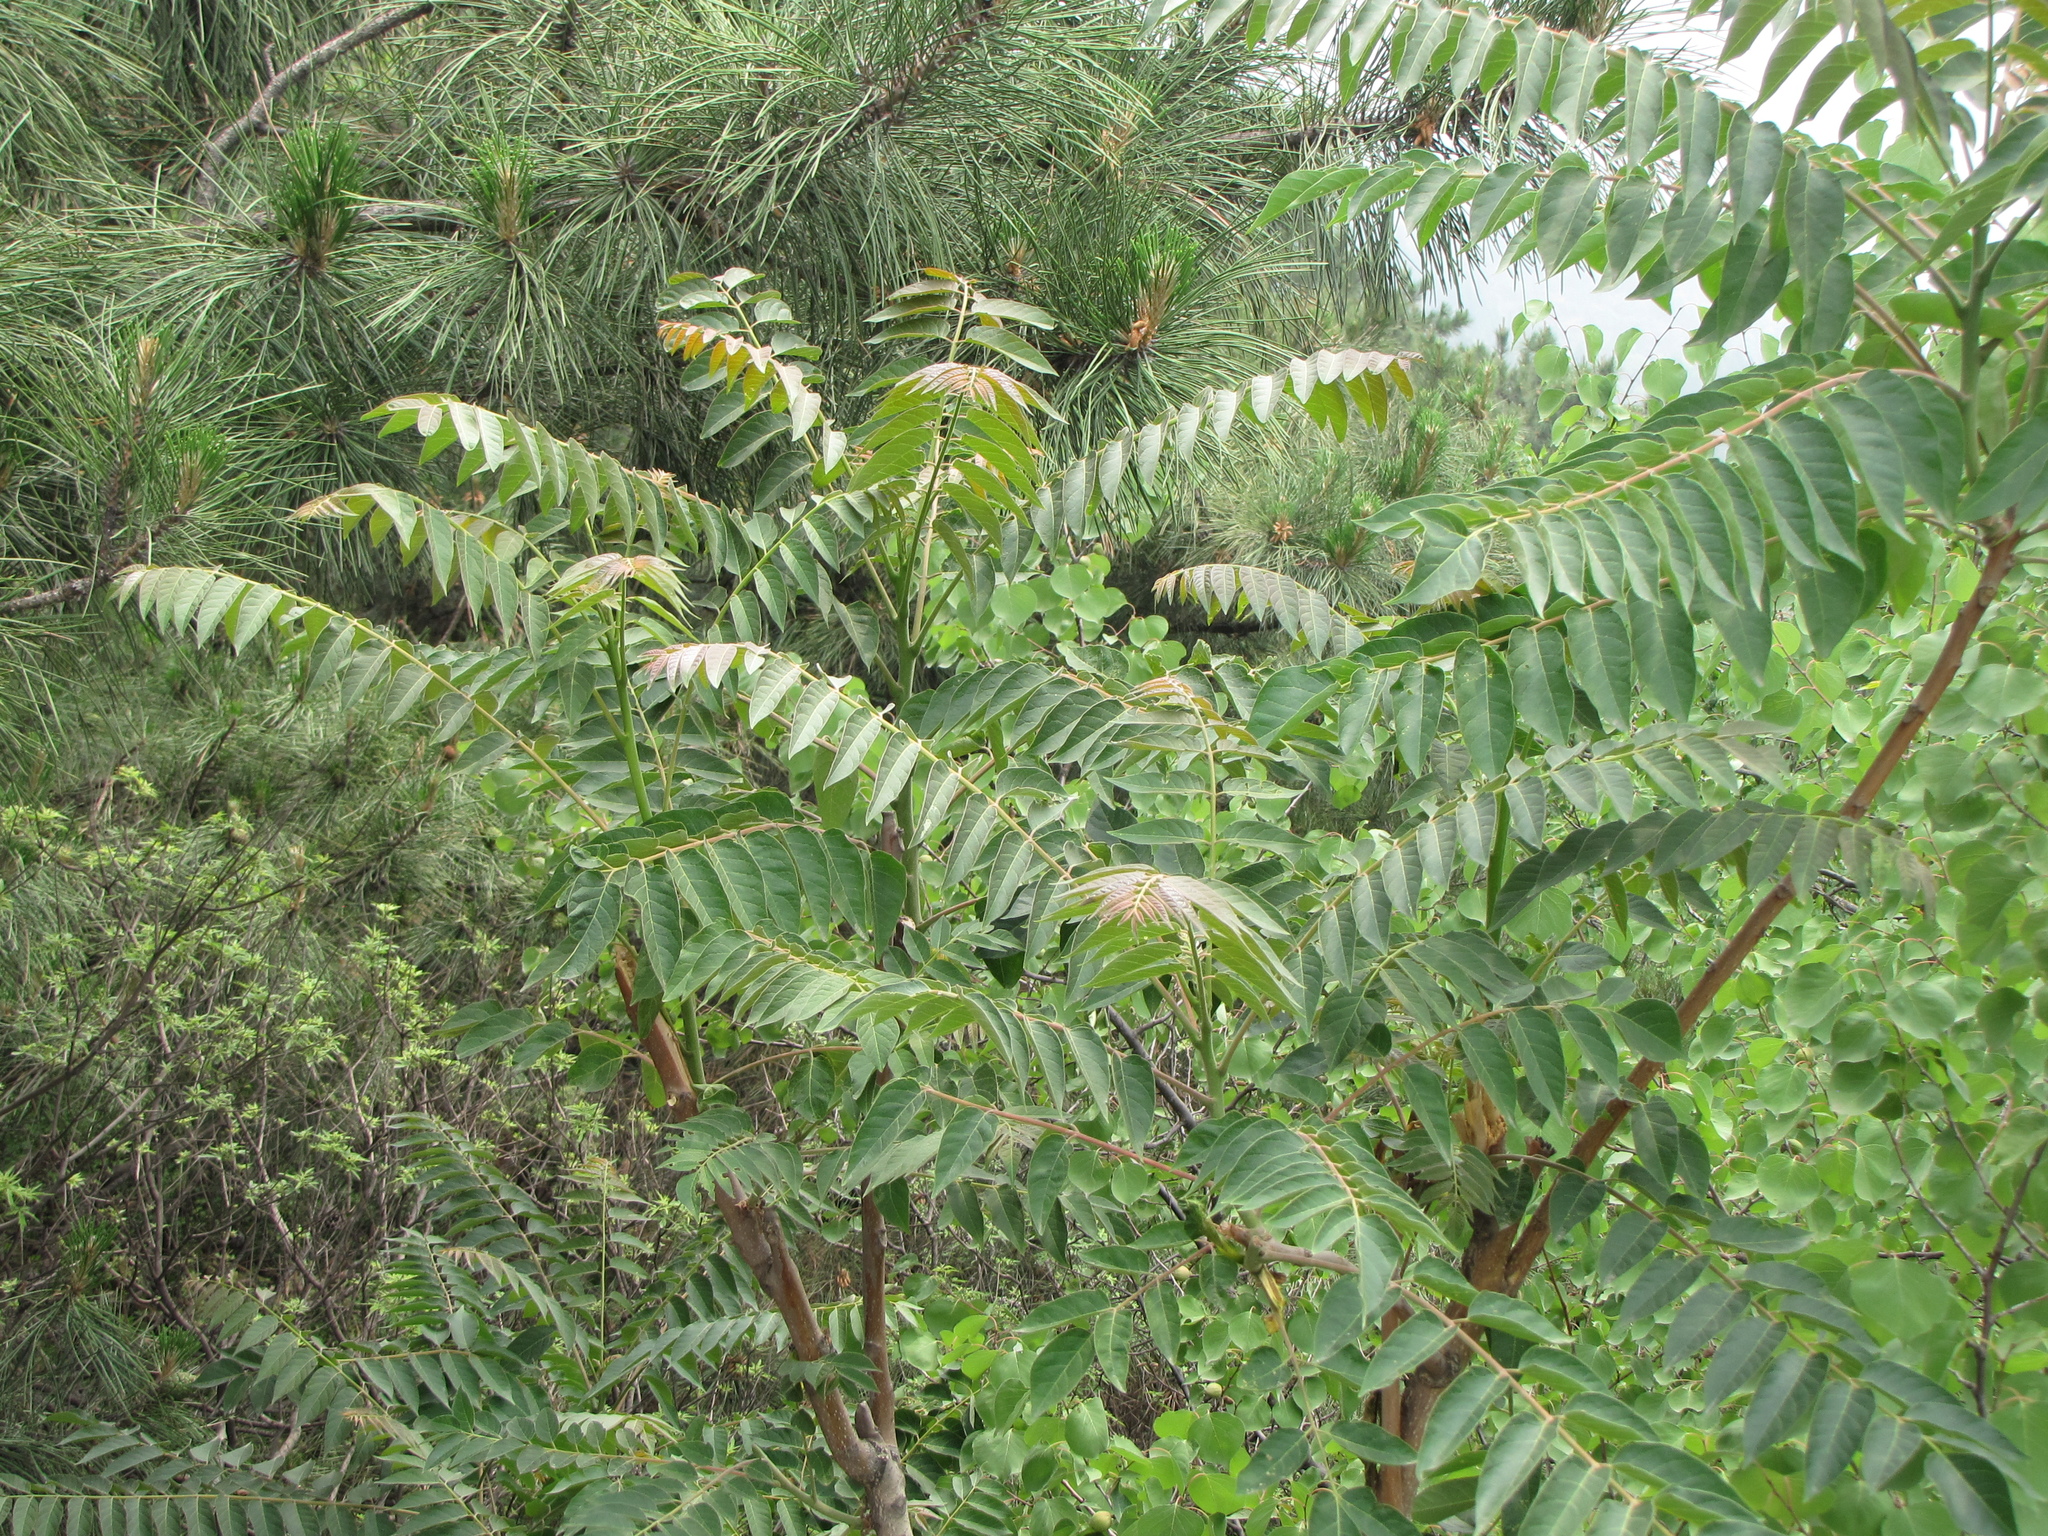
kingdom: Plantae
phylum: Tracheophyta
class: Magnoliopsida
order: Sapindales
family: Simaroubaceae
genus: Ailanthus
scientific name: Ailanthus altissima
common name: Tree-of-heaven
